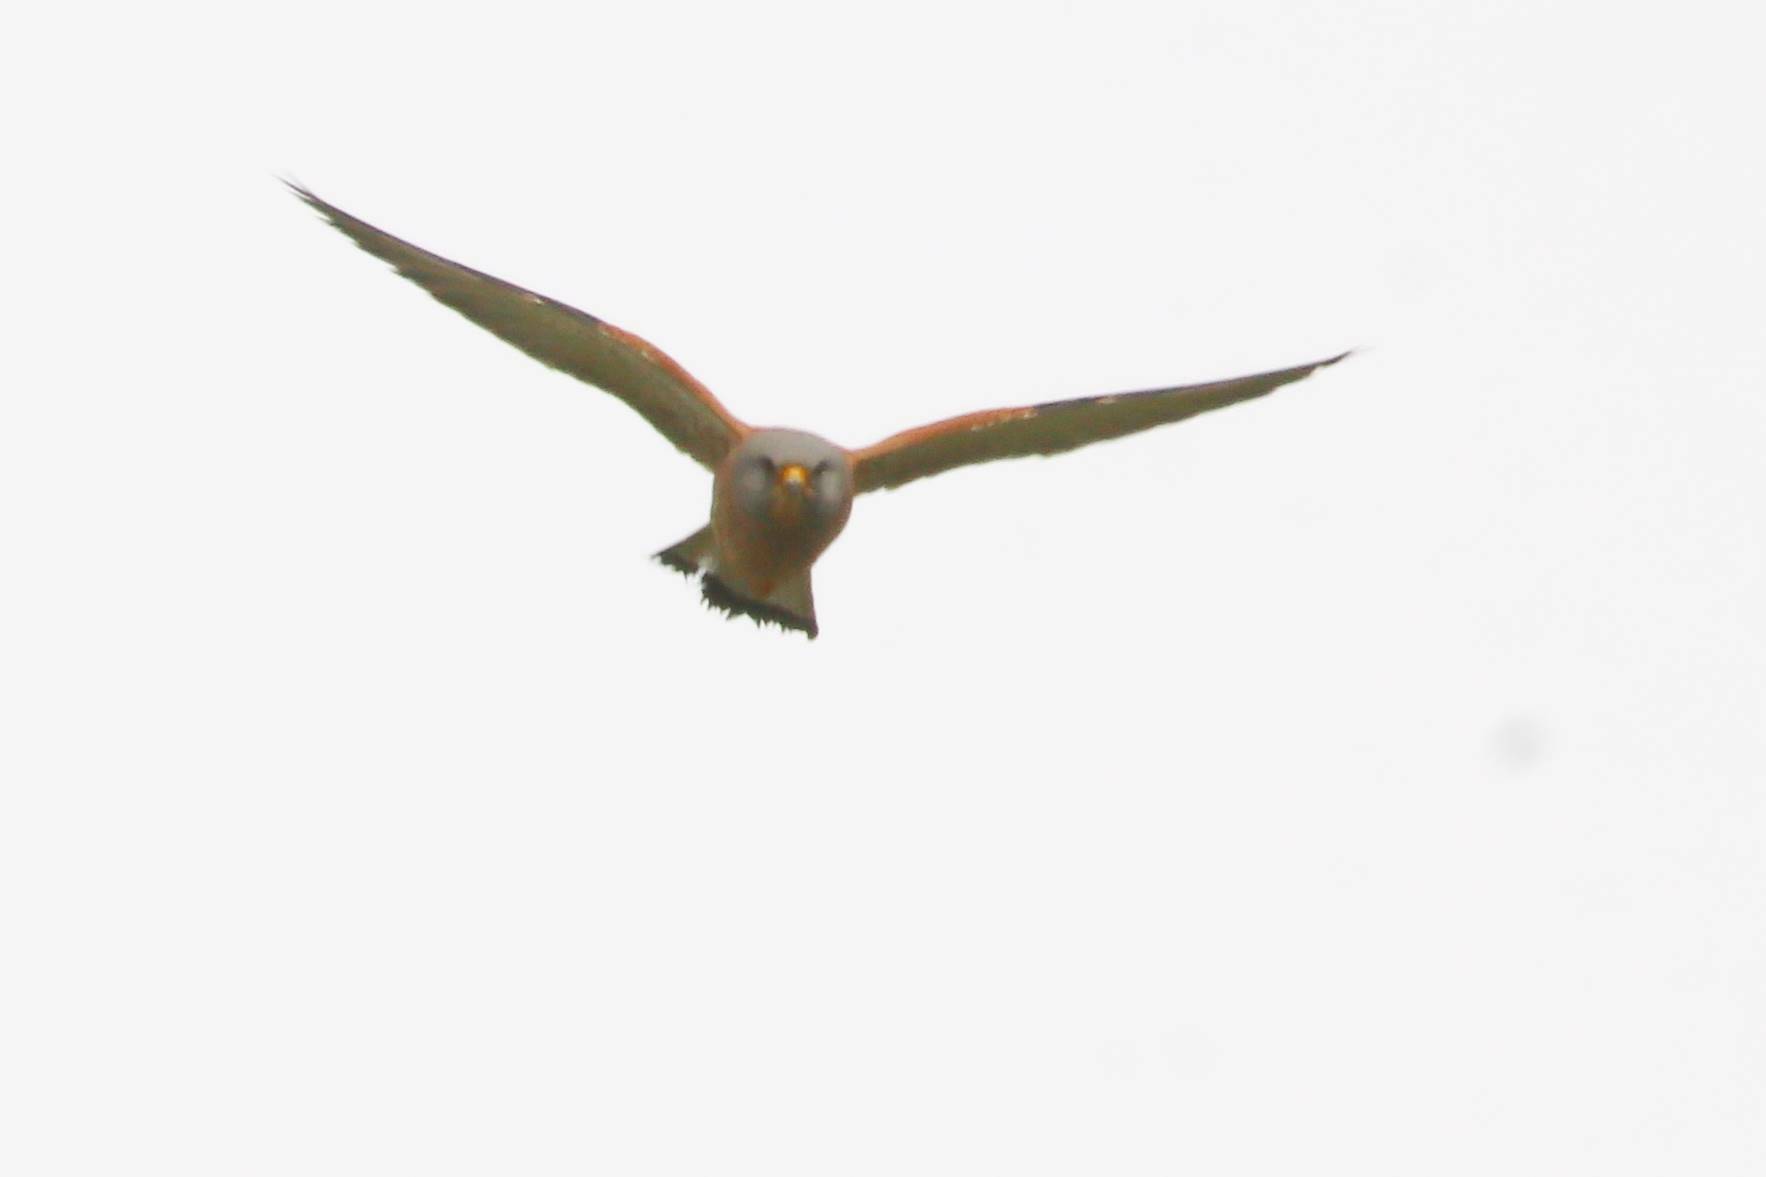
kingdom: Animalia
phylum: Chordata
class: Aves
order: Falconiformes
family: Falconidae
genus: Falco
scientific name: Falco naumanni
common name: Lesser kestrel
